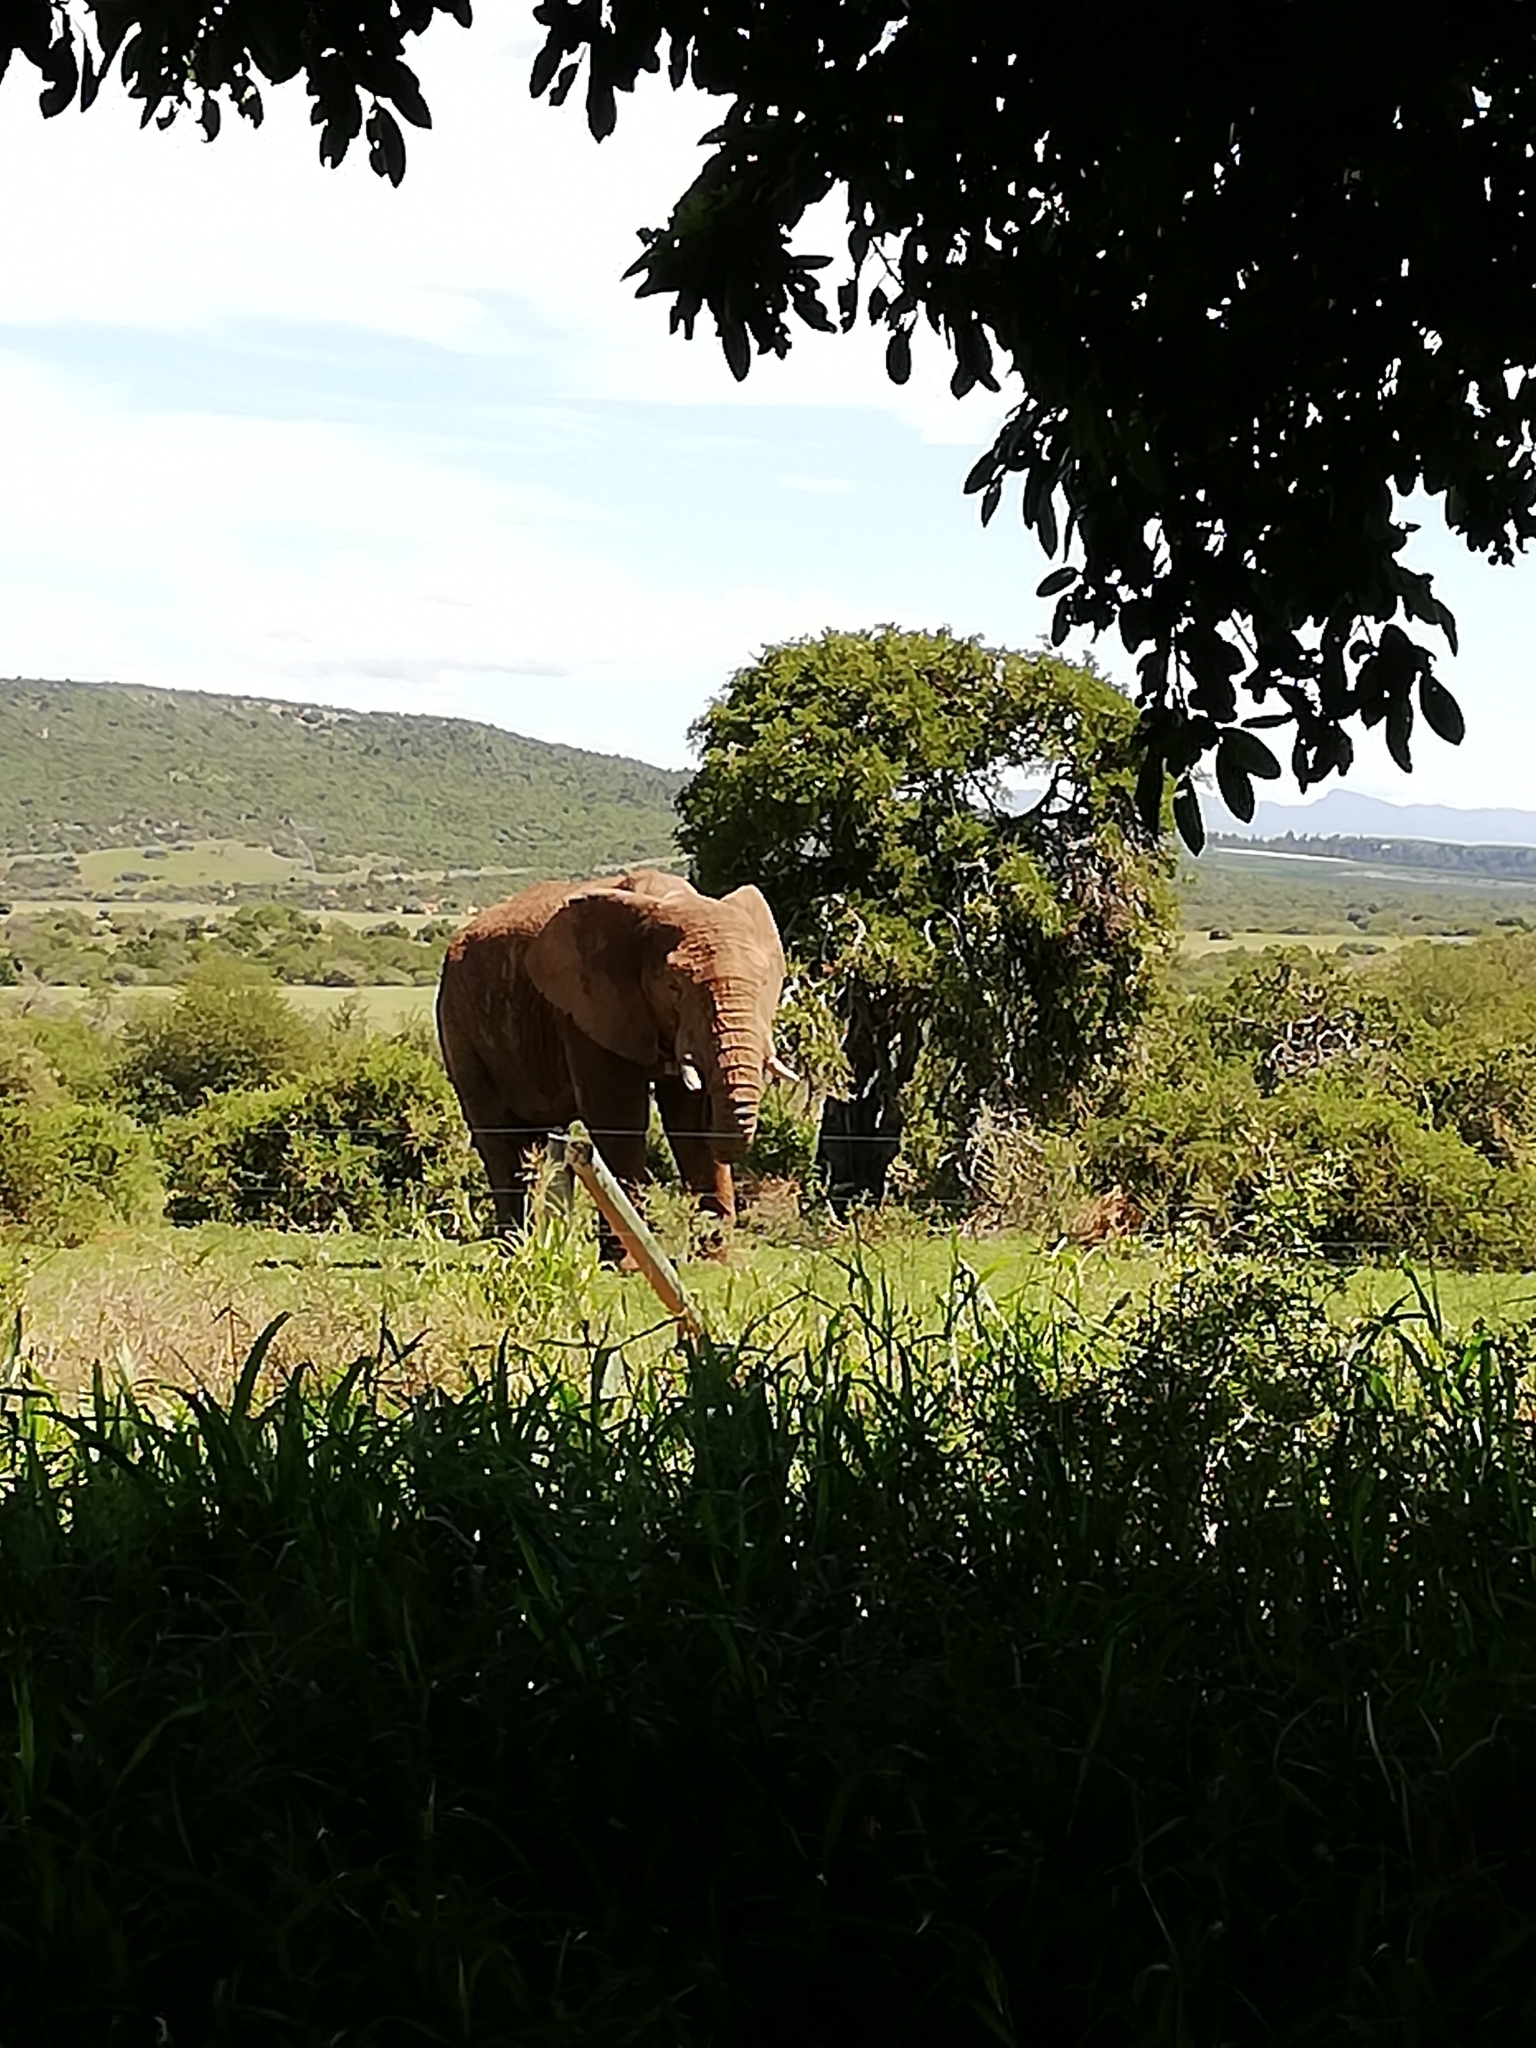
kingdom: Animalia
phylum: Chordata
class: Mammalia
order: Proboscidea
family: Elephantidae
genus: Loxodonta
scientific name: Loxodonta africana
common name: African elephant
